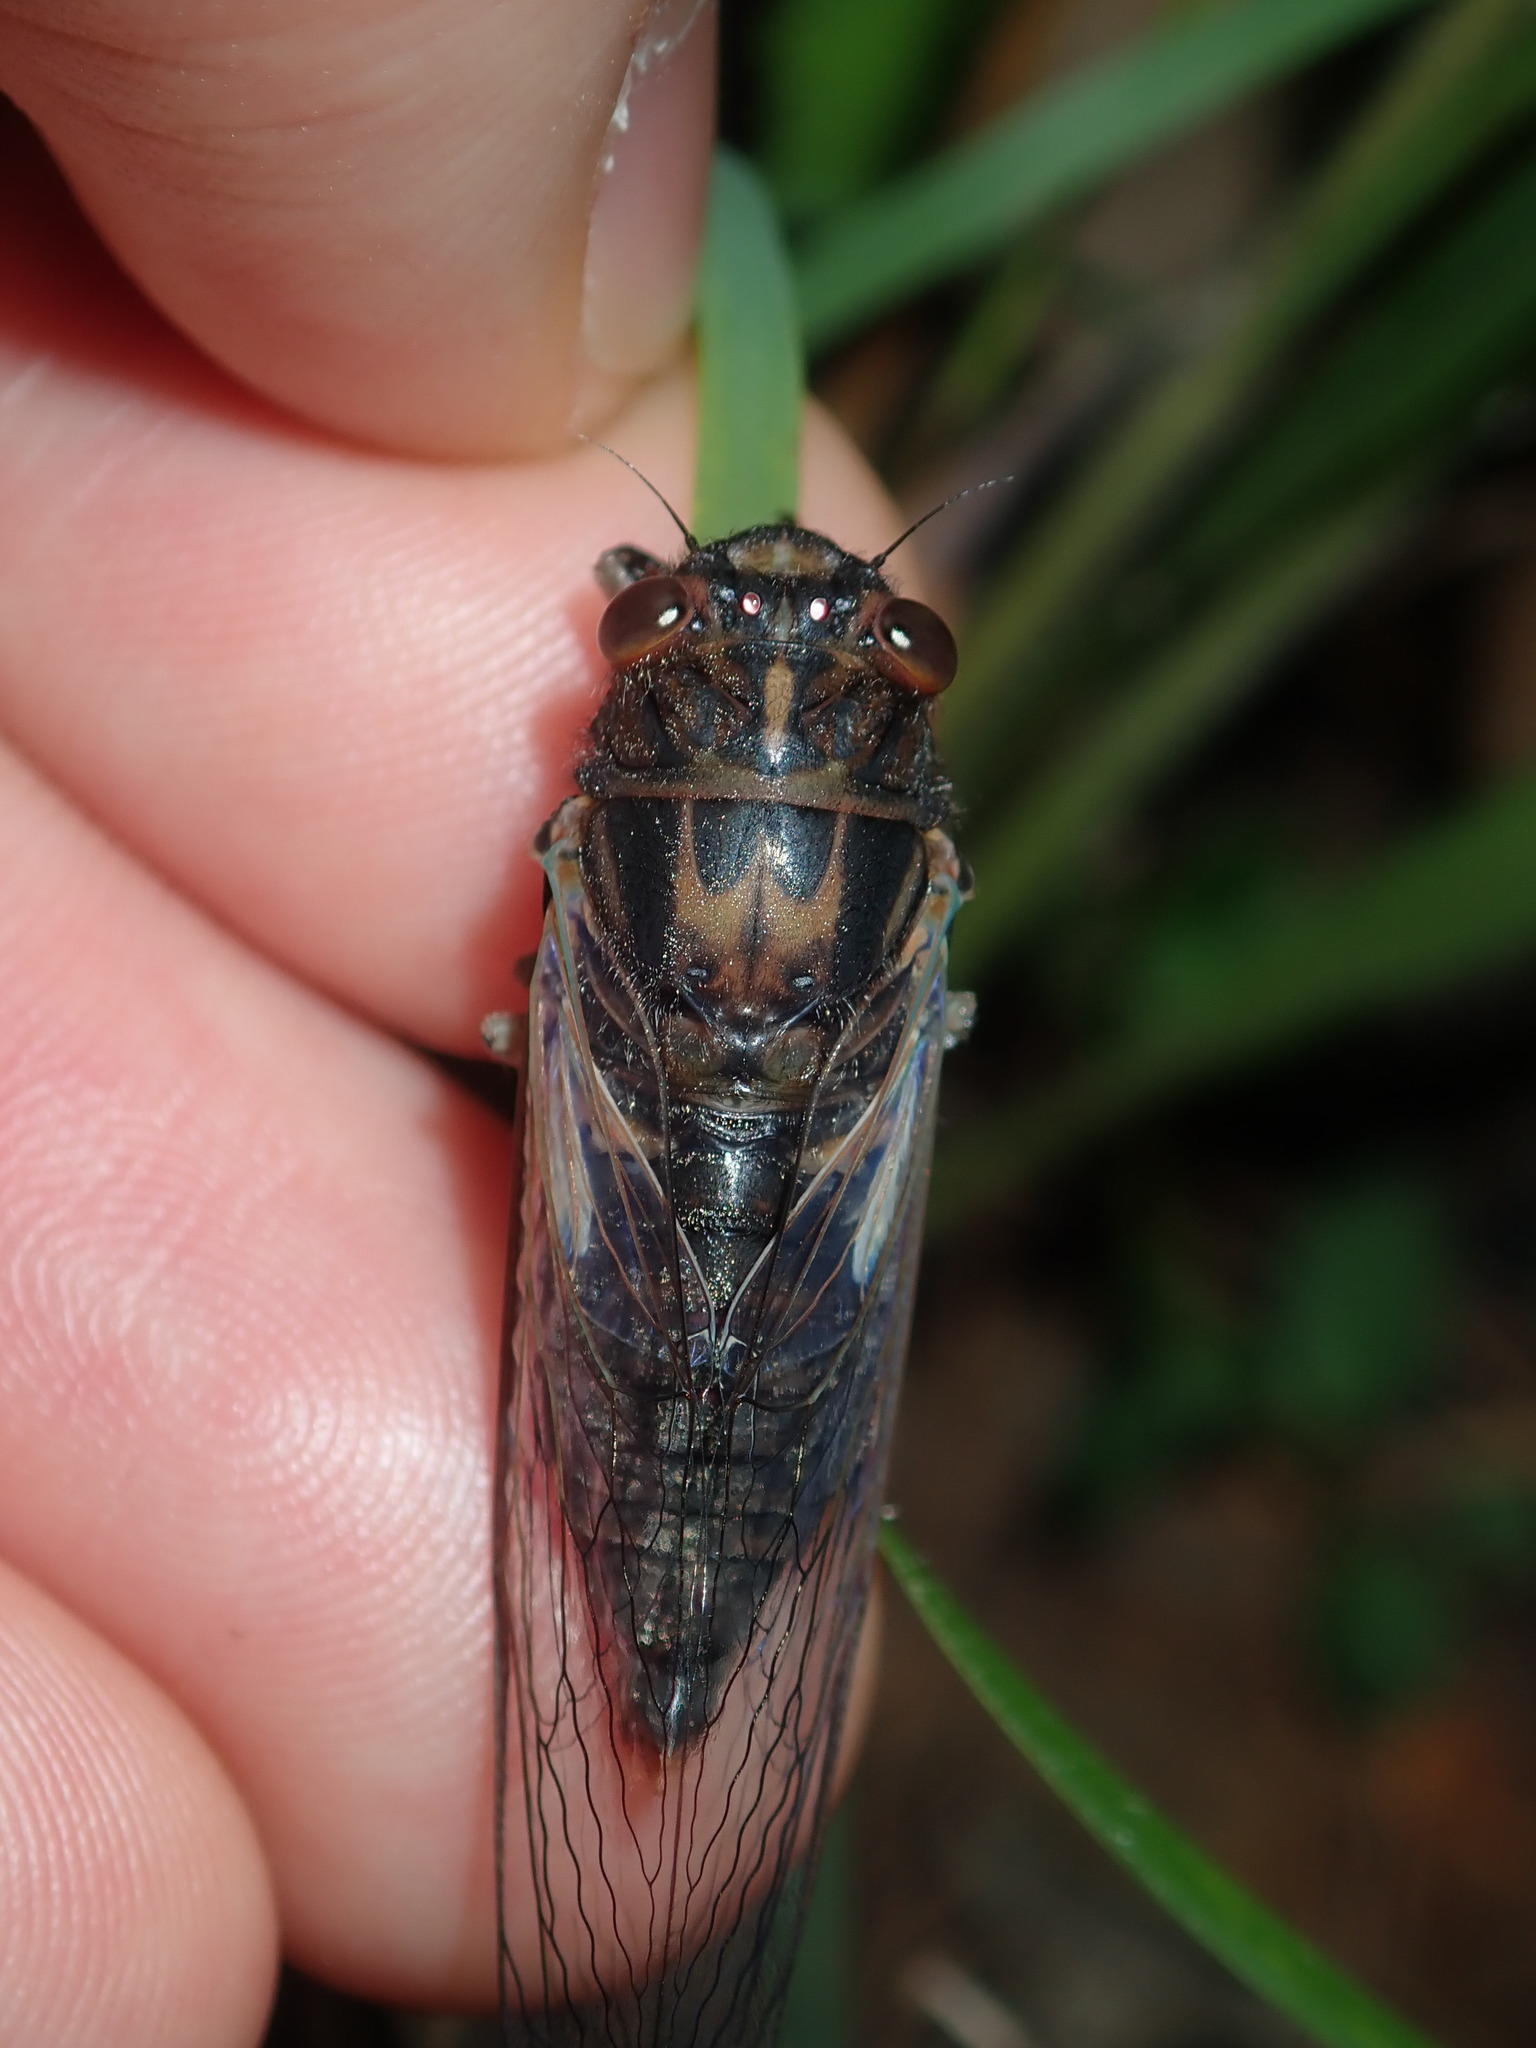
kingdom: Animalia
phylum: Arthropoda
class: Insecta
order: Hemiptera
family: Cicadidae
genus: Yoyetta
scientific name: Yoyetta timothyi
